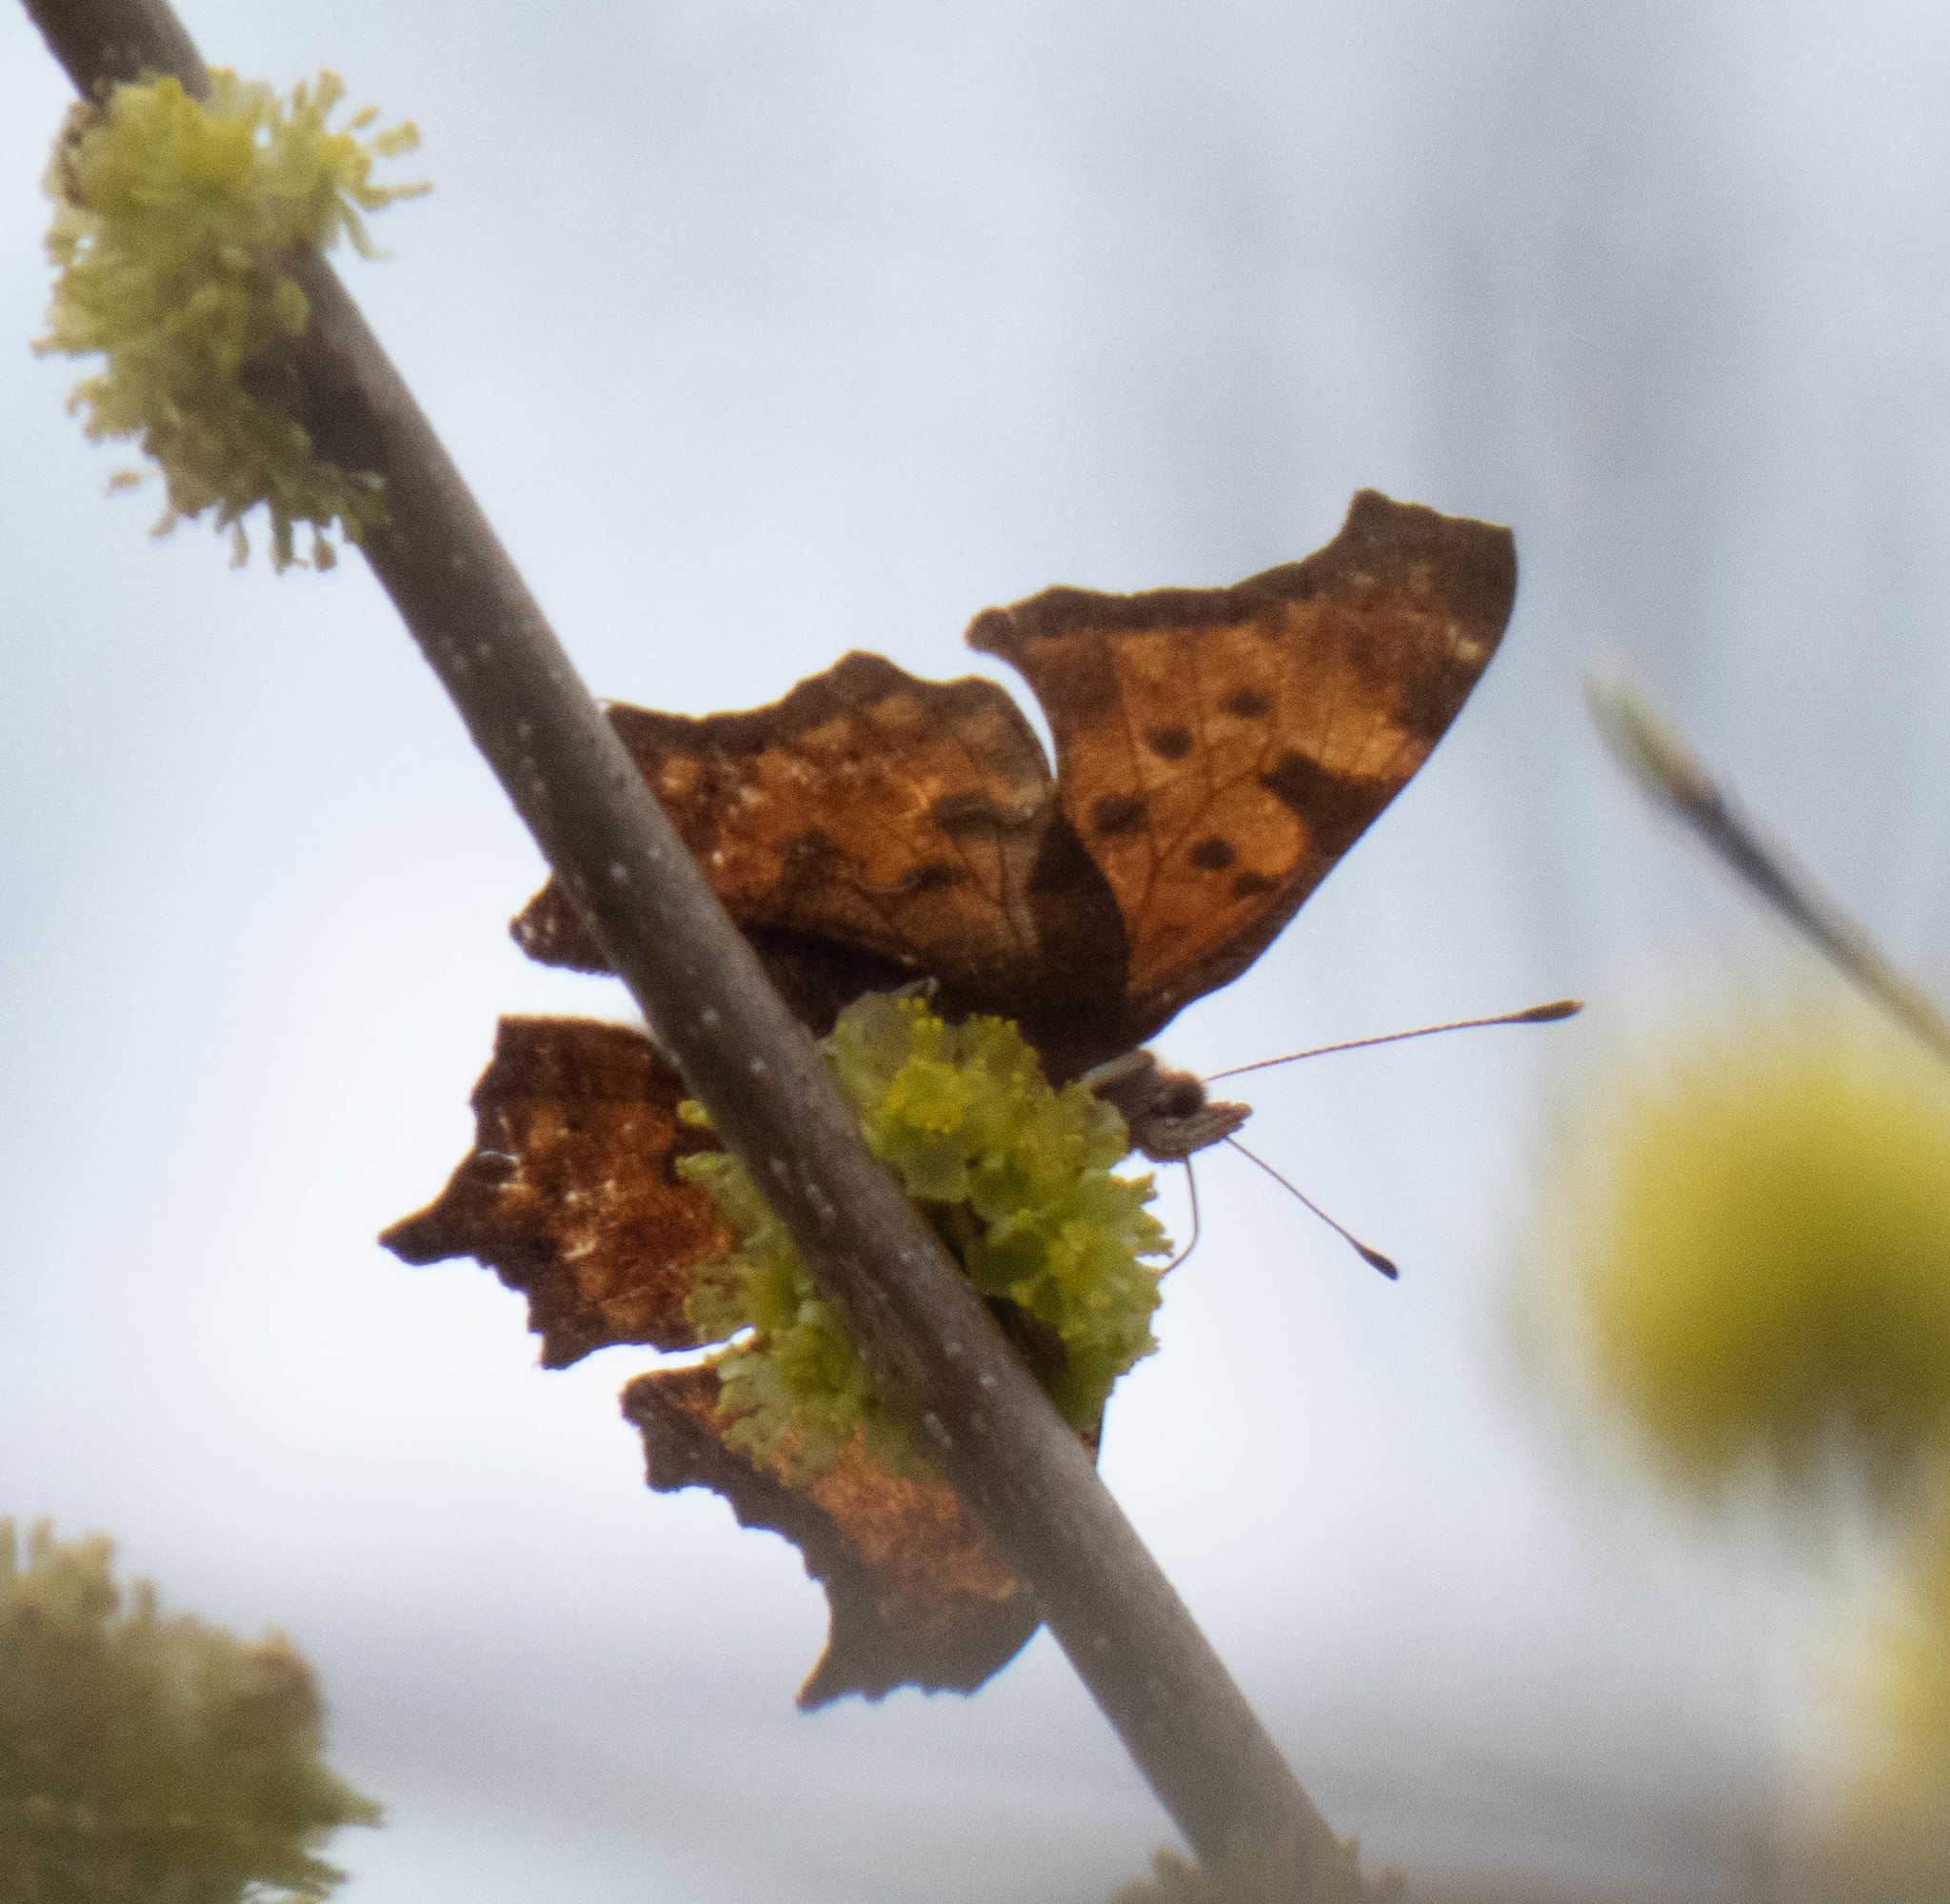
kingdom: Animalia
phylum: Arthropoda
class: Insecta
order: Lepidoptera
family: Nymphalidae
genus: Polygonia
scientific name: Polygonia comma
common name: Eastern comma
